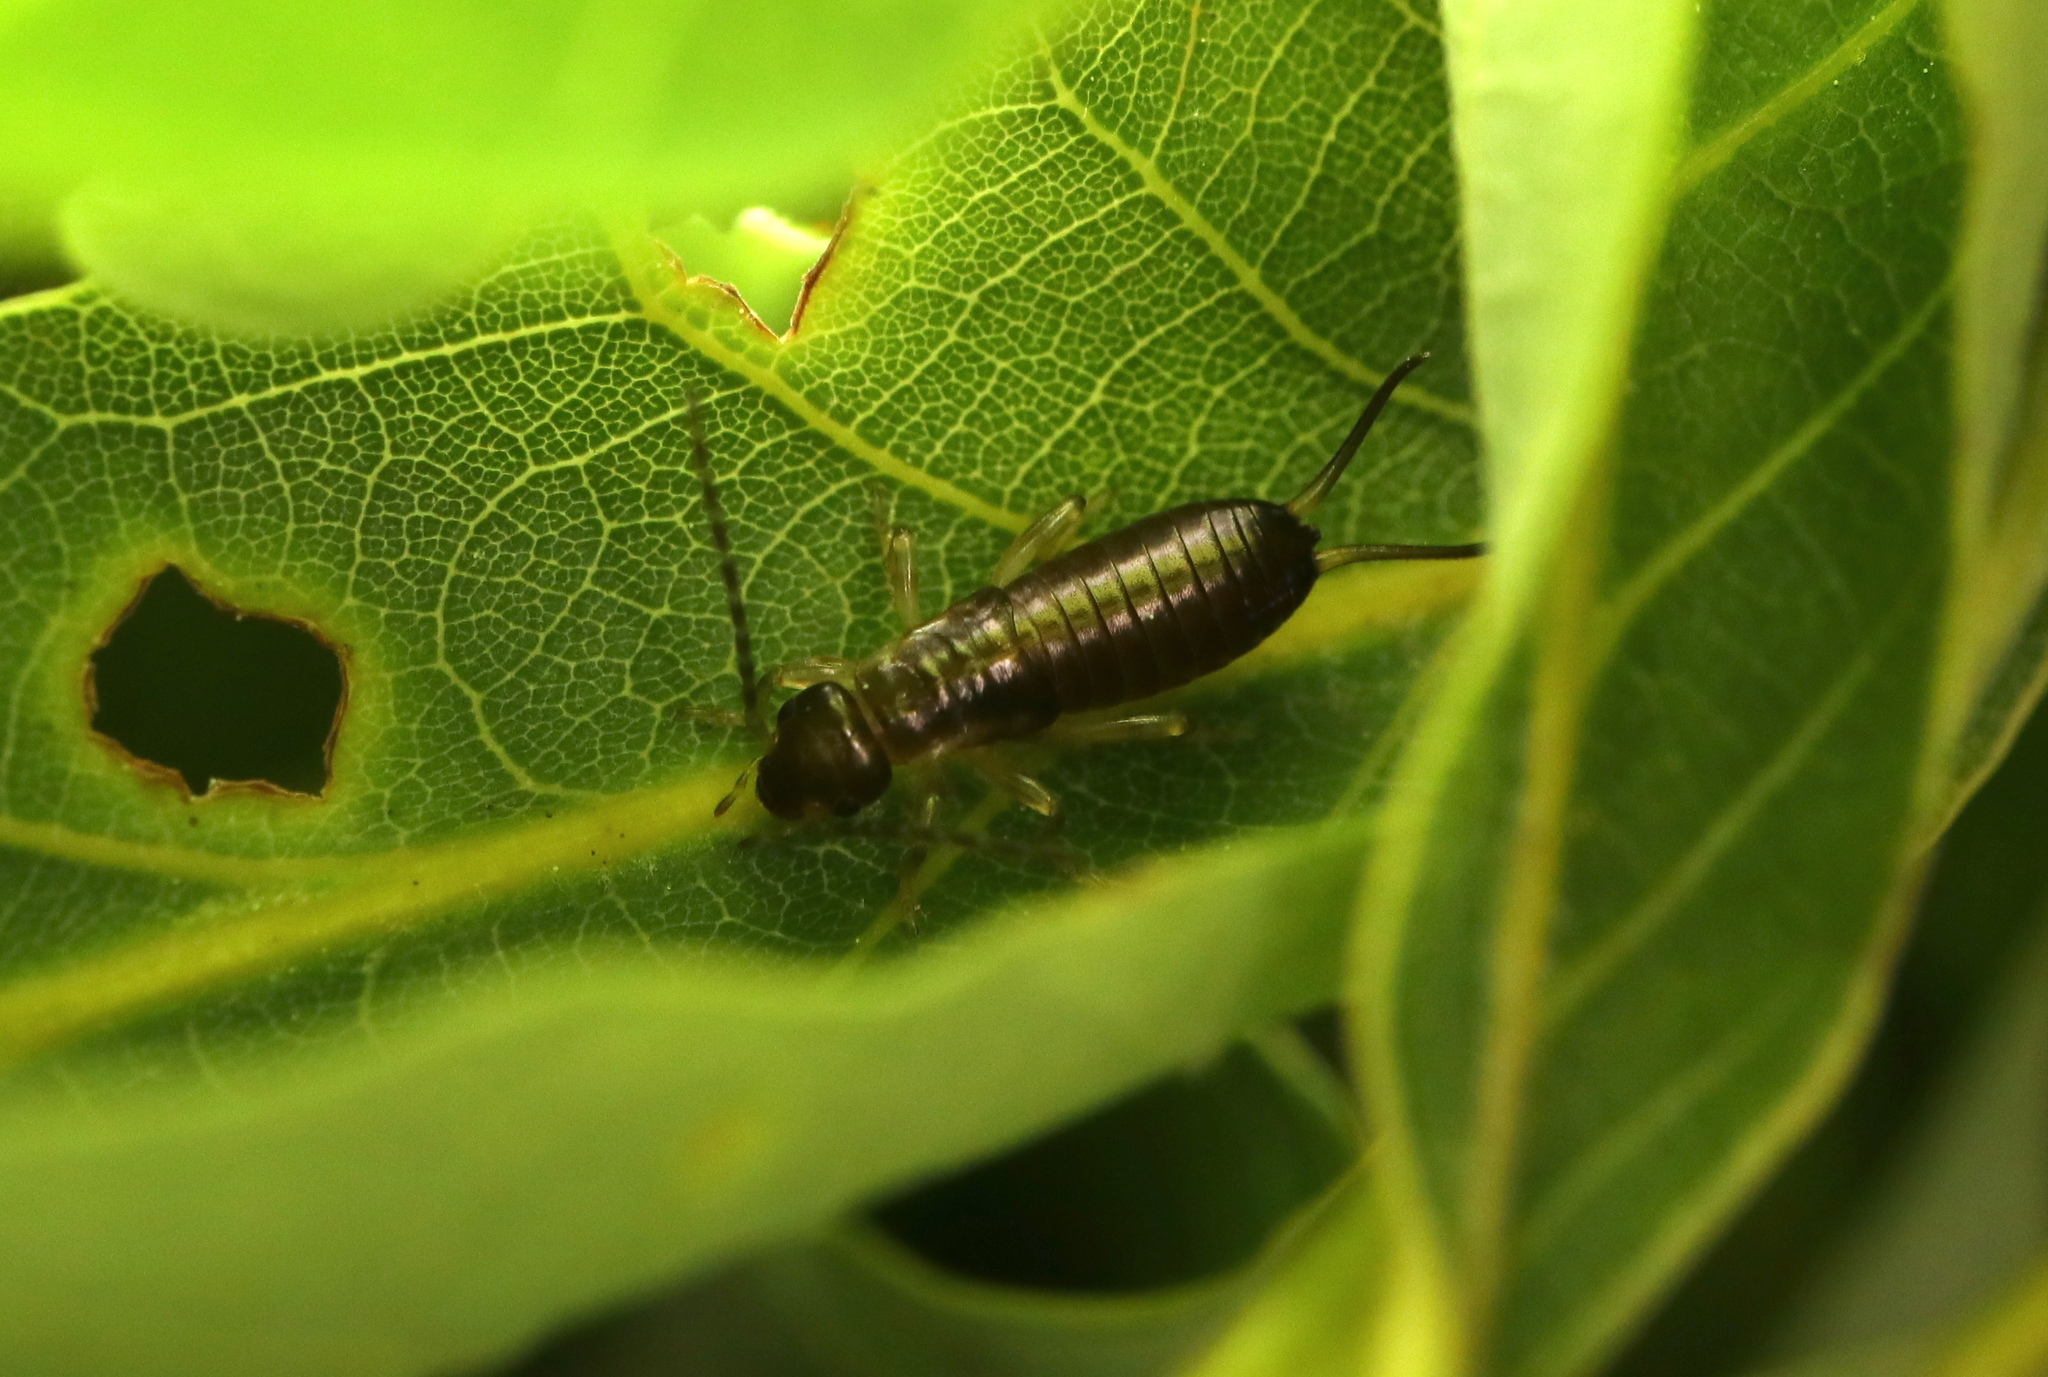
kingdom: Animalia
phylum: Arthropoda
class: Insecta
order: Dermaptera
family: Forficulidae
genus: Forficula
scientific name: Forficula
